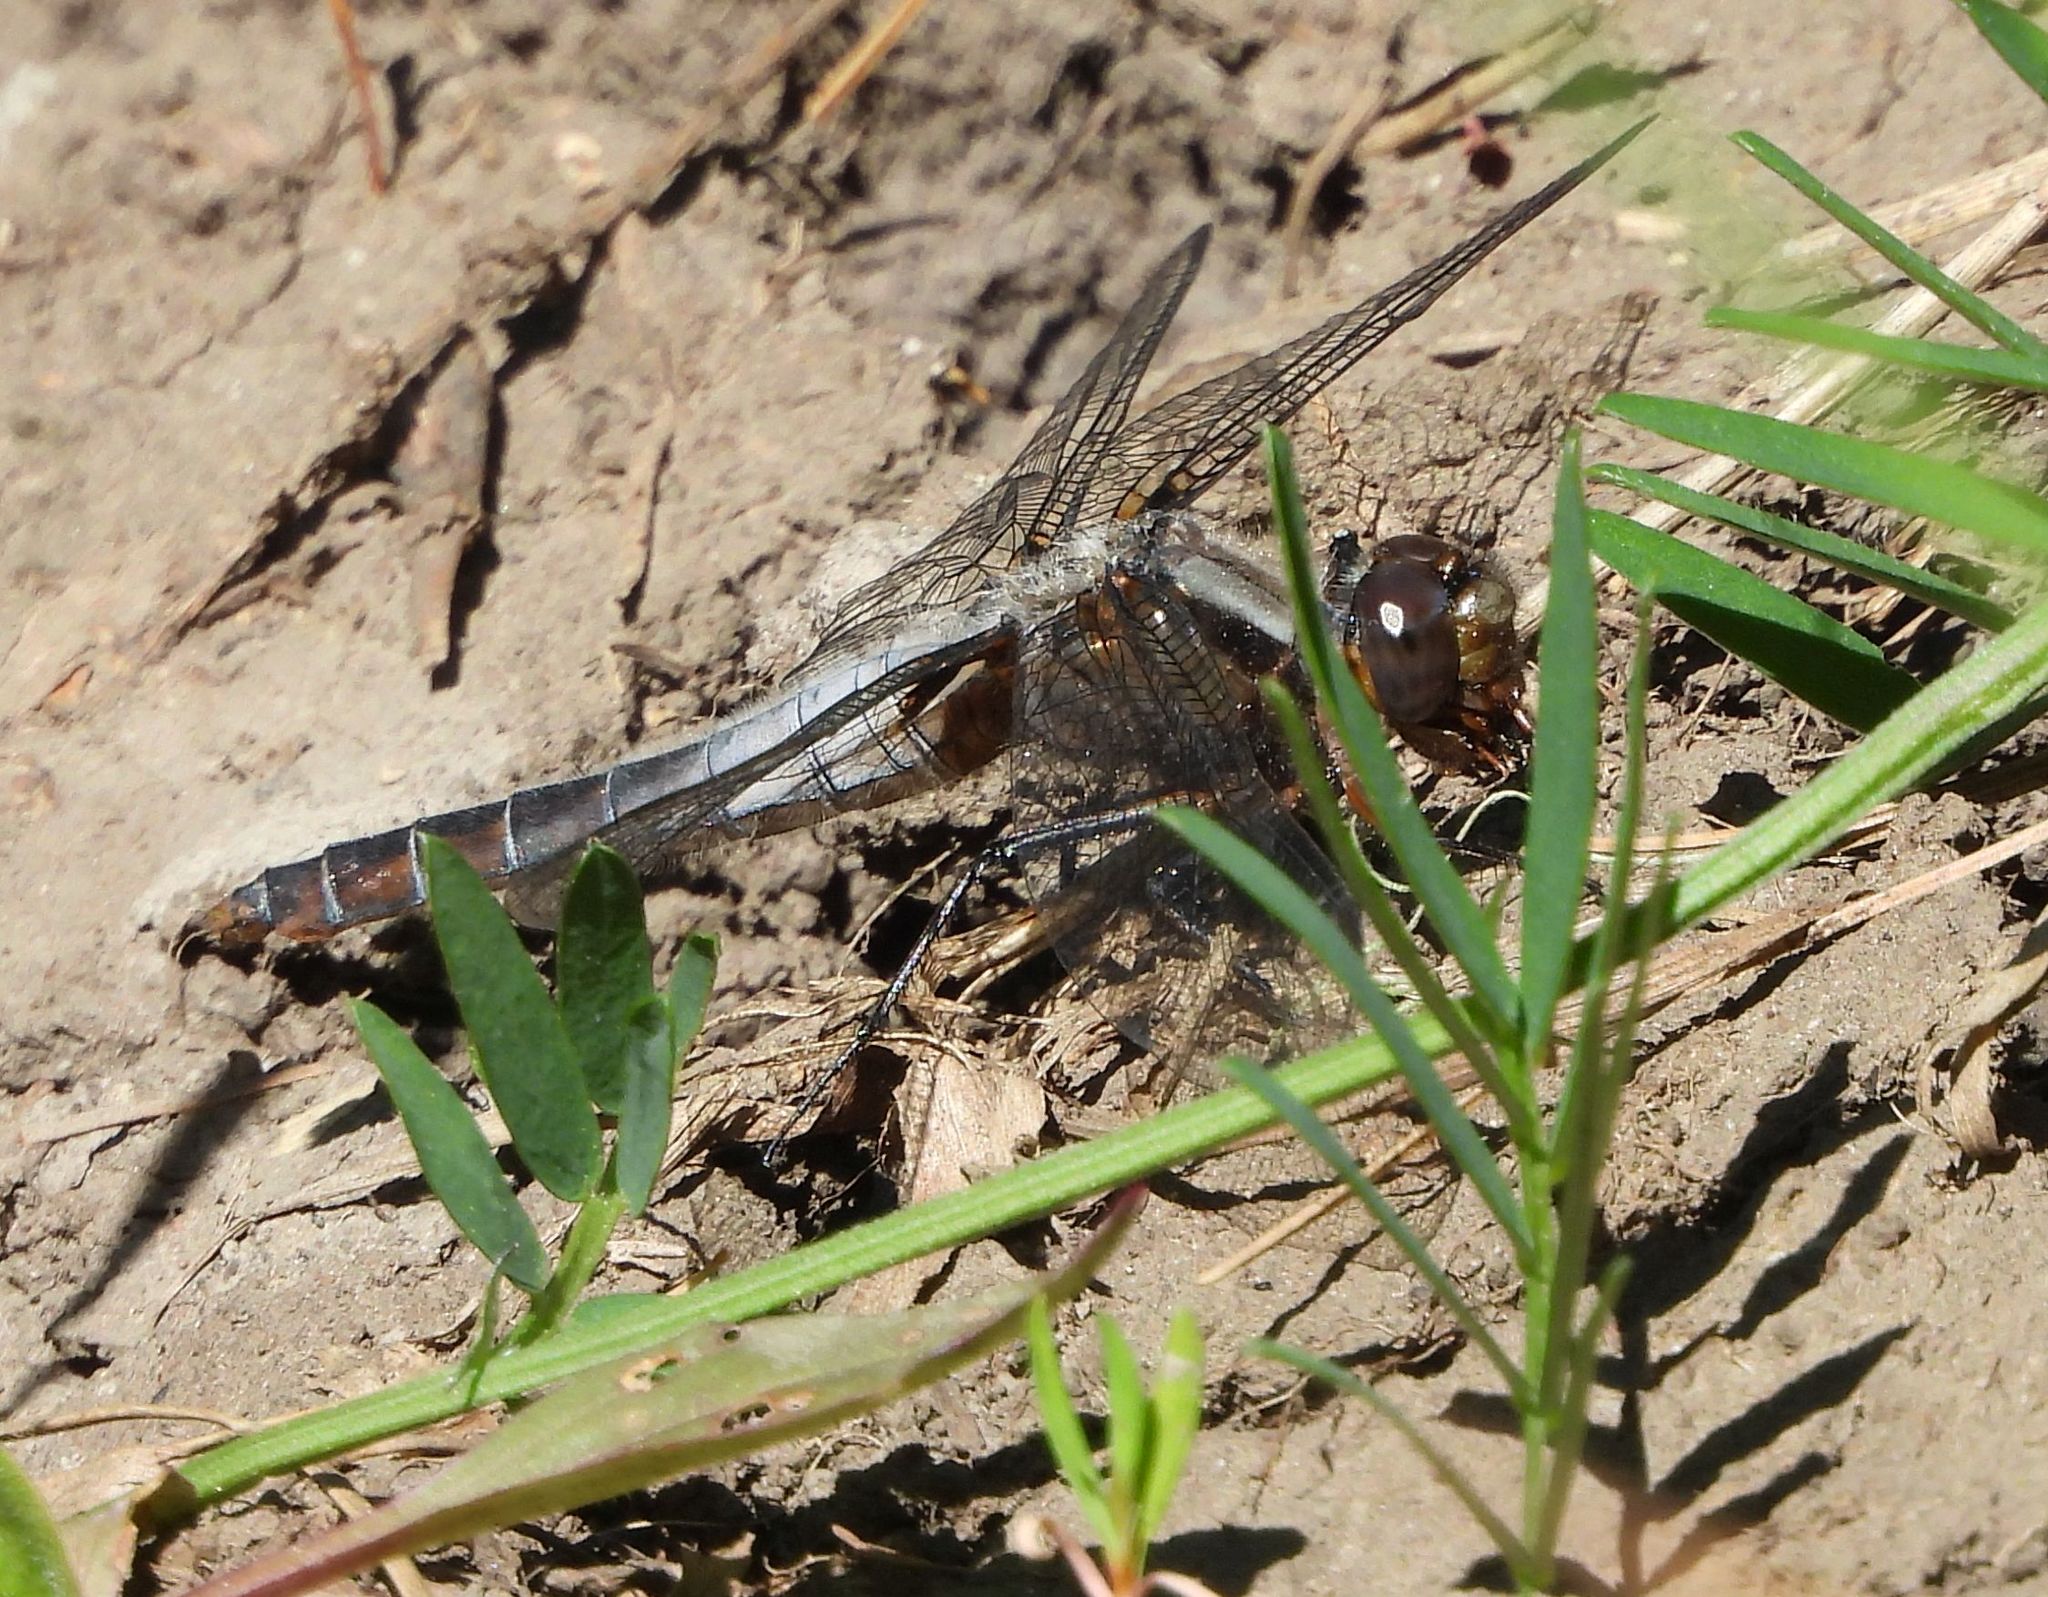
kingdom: Animalia
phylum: Arthropoda
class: Insecta
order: Odonata
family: Libellulidae
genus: Ladona
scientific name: Ladona julia
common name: Chalk-fronted corporal
